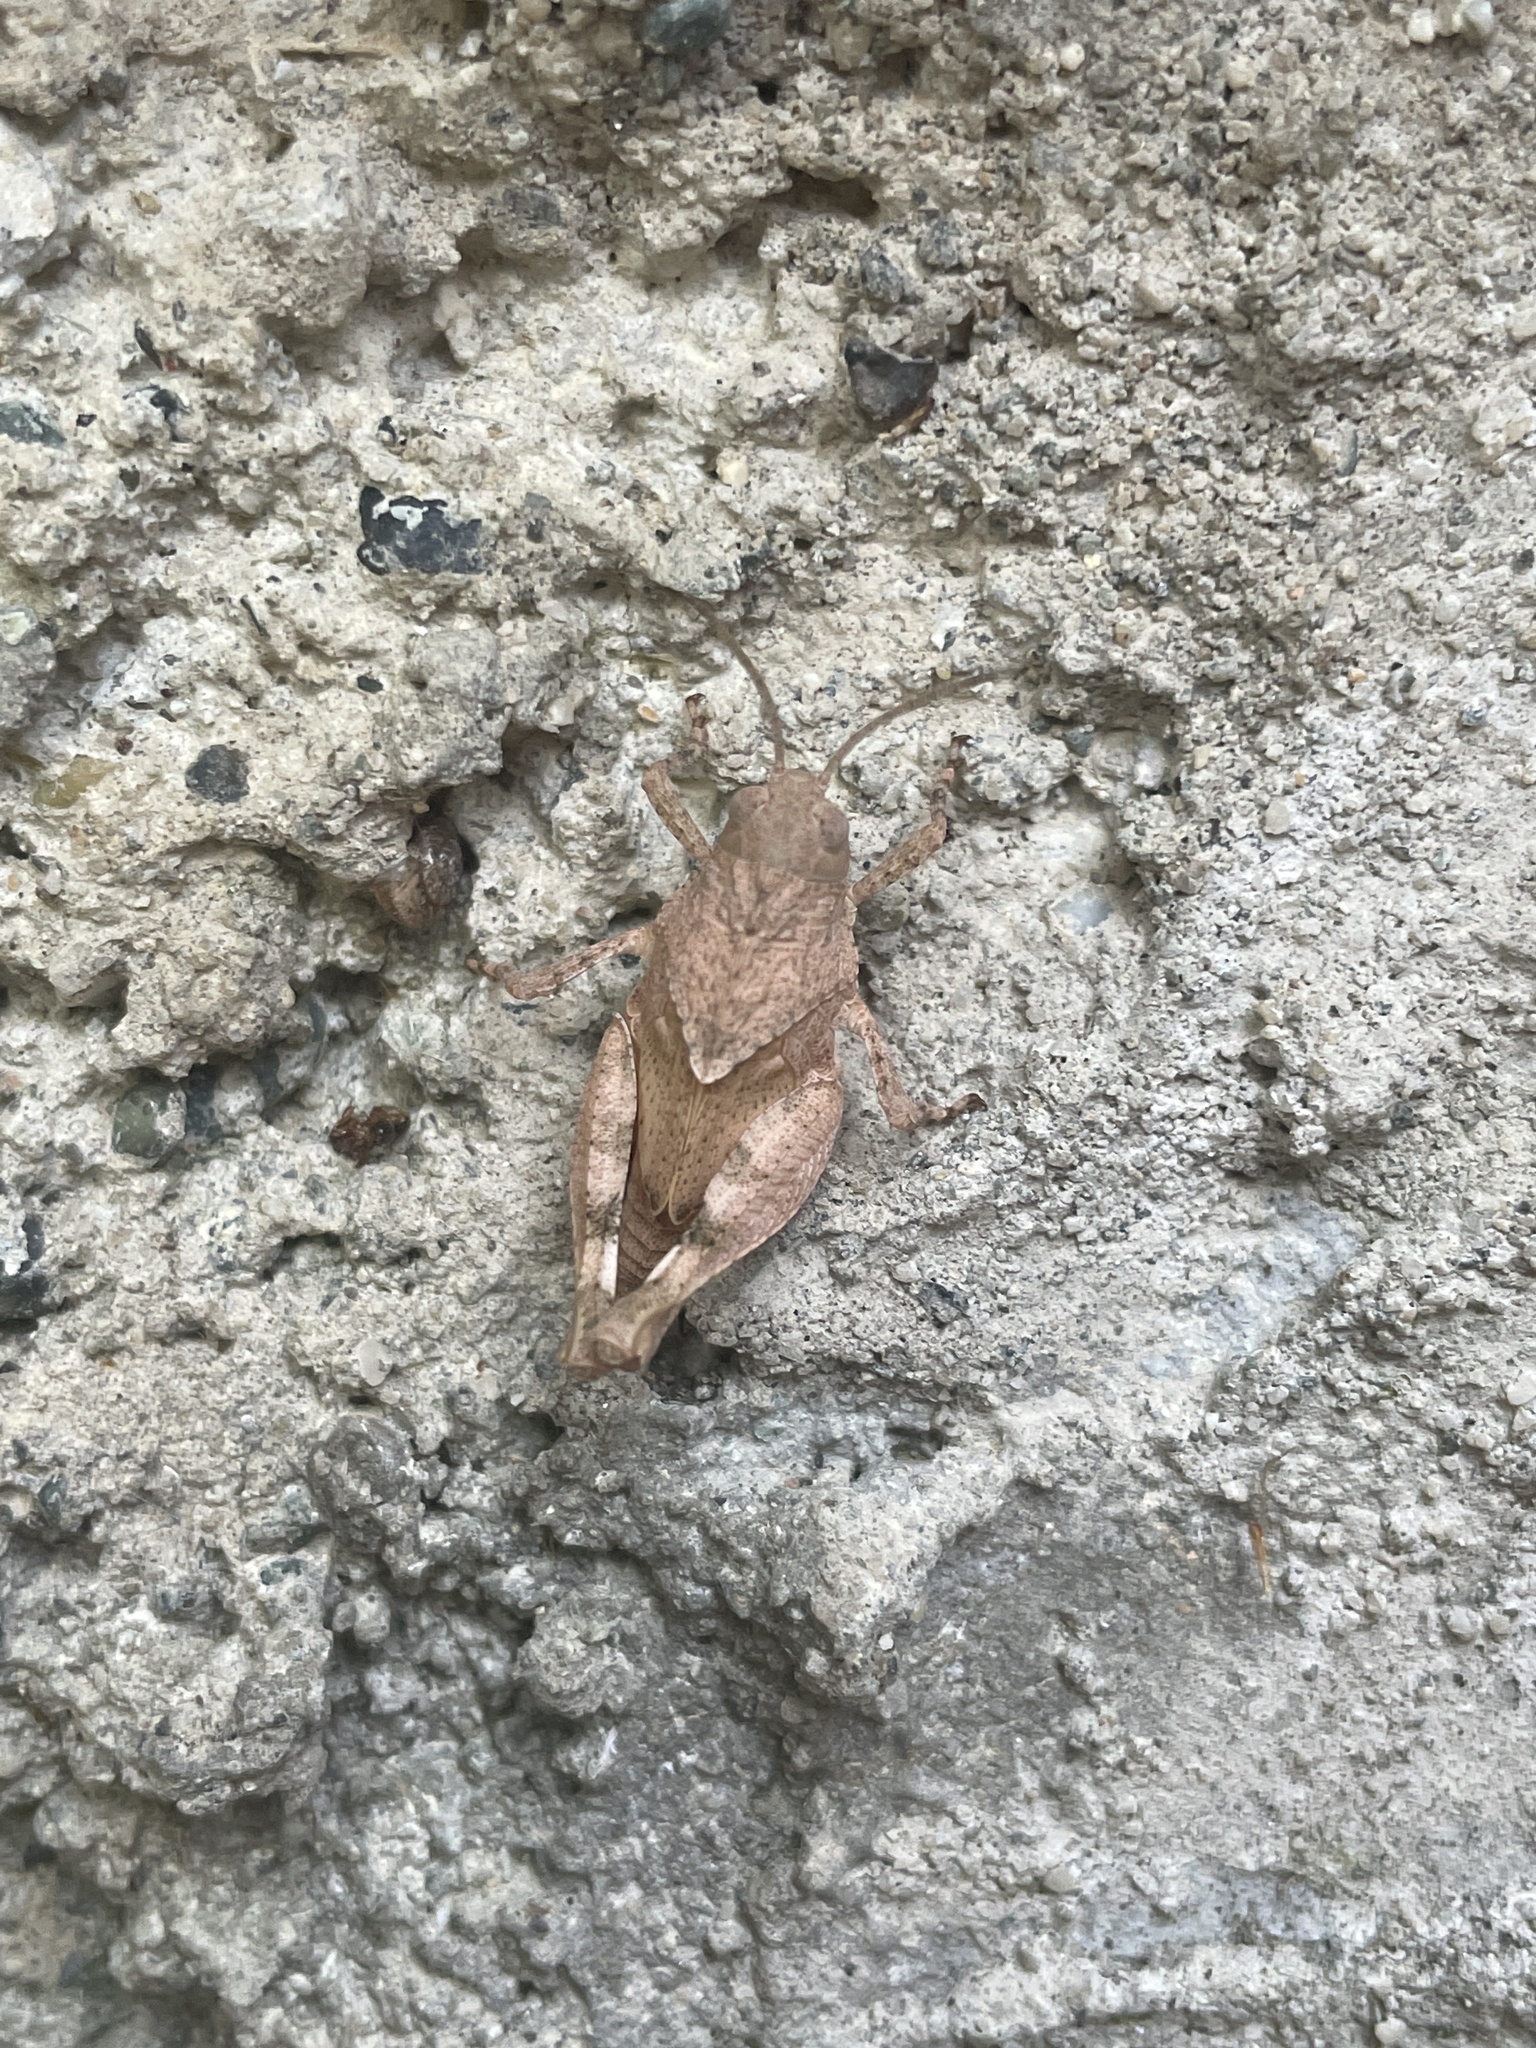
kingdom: Animalia
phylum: Arthropoda
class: Insecta
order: Orthoptera
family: Acrididae
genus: Oedipoda
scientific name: Oedipoda caerulescens
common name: Blue-winged grasshopper
